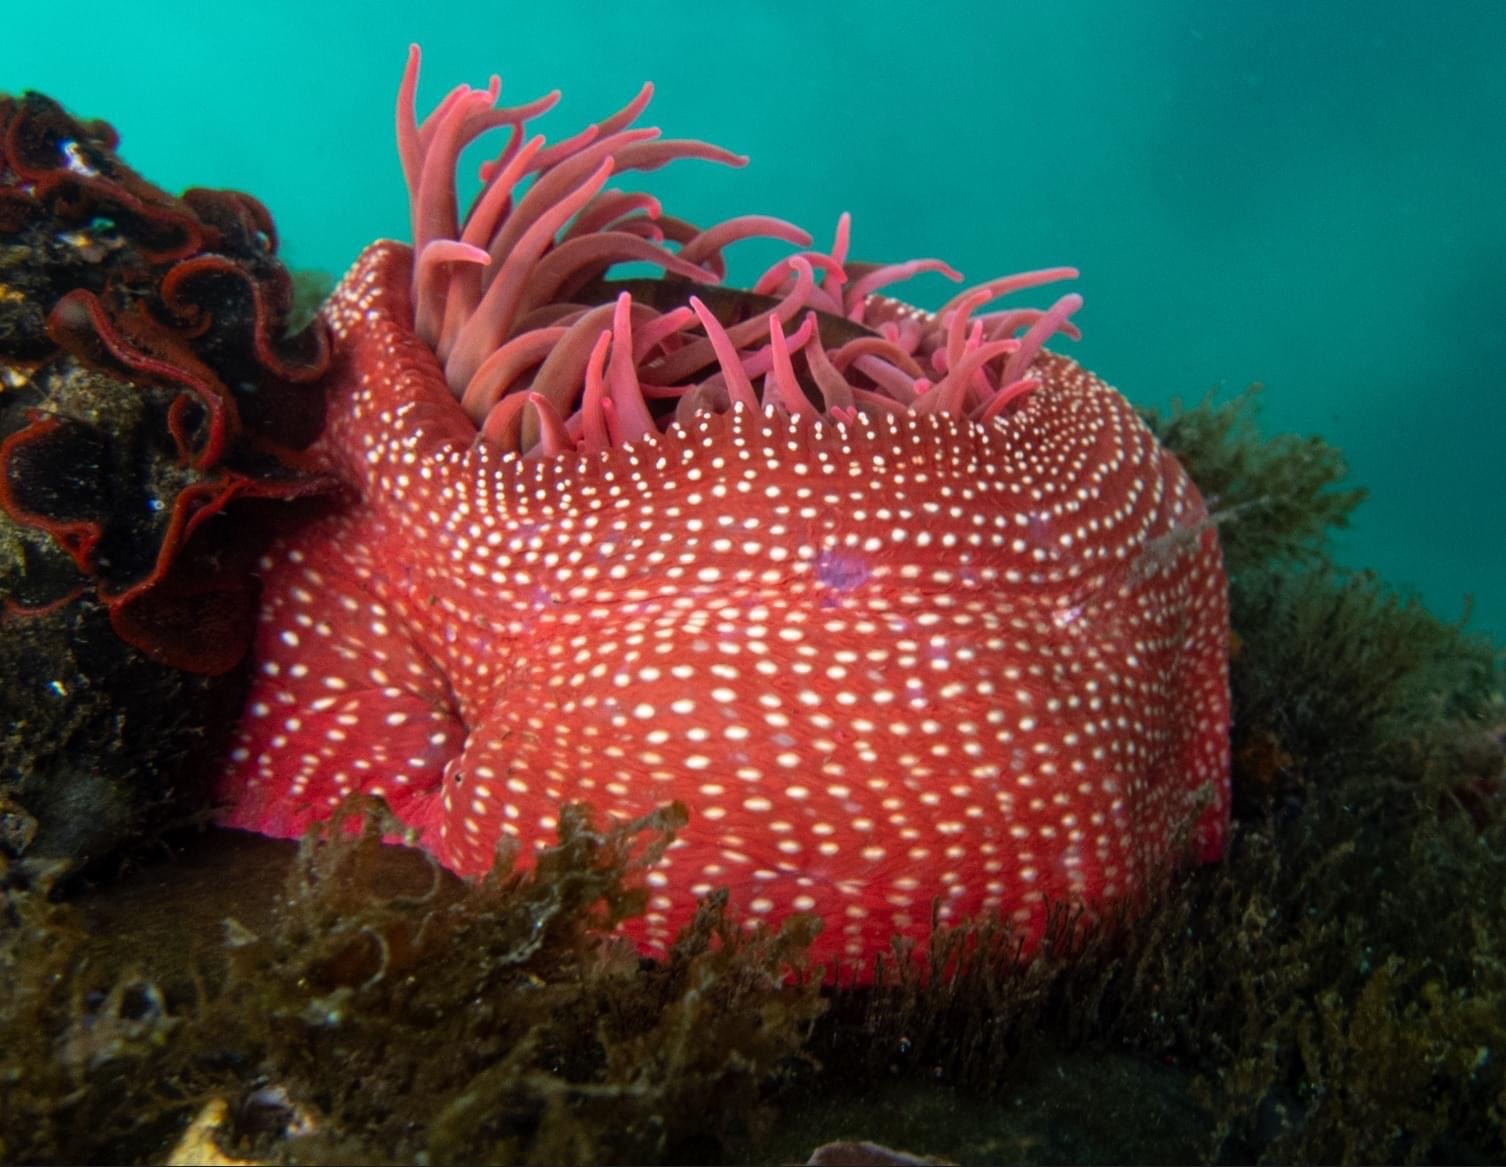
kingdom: Animalia
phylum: Cnidaria
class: Anthozoa
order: Actiniaria
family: Actiniidae
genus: Cribrinopsis
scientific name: Cribrinopsis albopunctata
